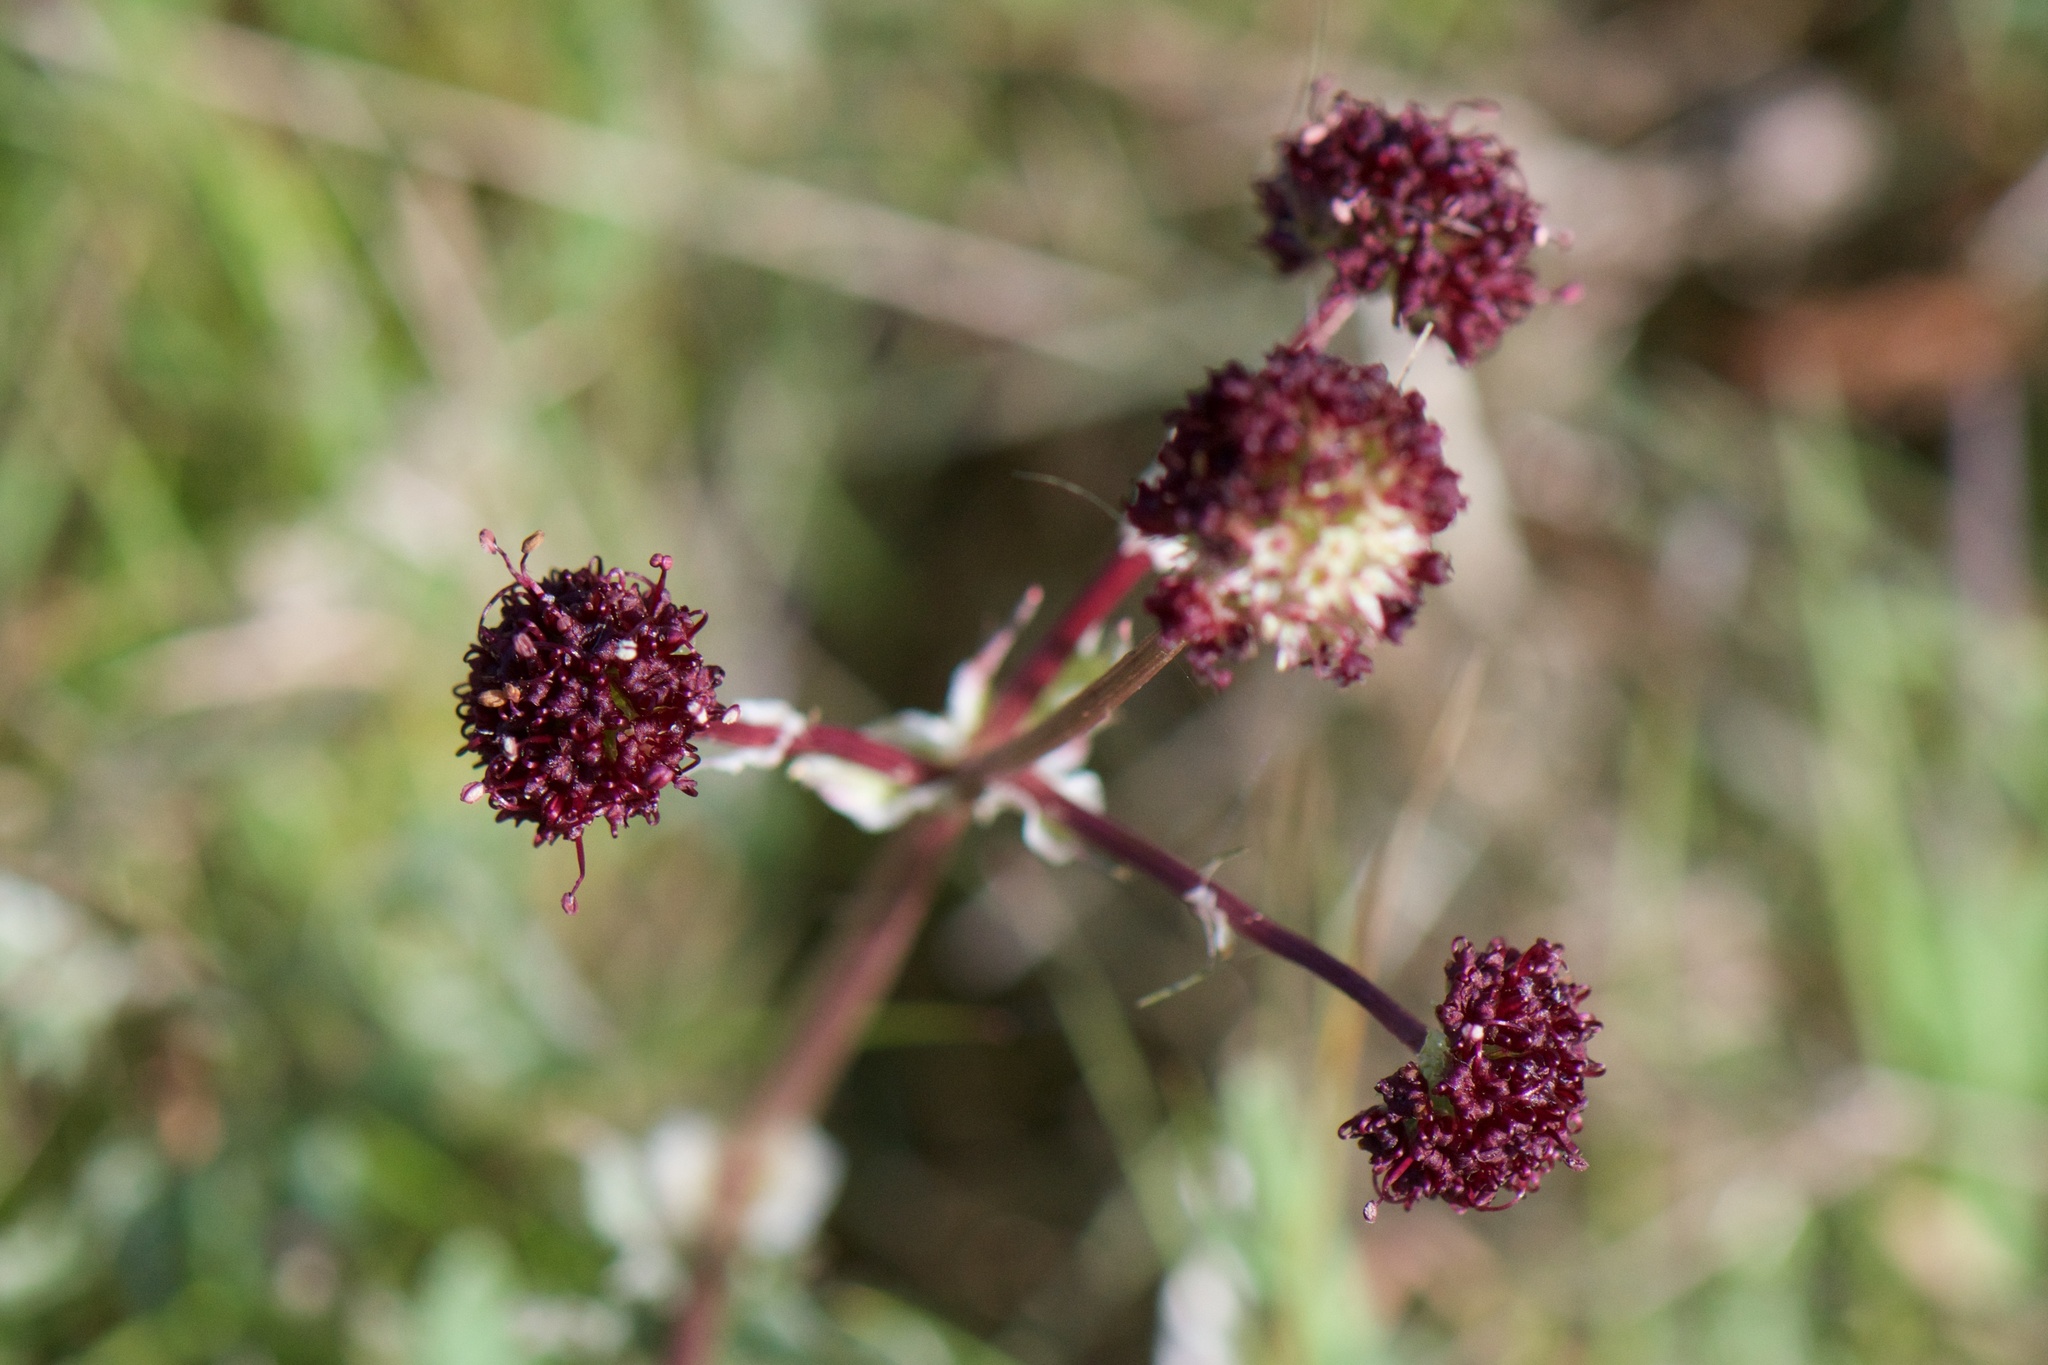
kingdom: Plantae
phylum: Tracheophyta
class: Magnoliopsida
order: Apiales
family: Apiaceae
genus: Sanicula
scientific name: Sanicula bipinnatifida
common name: Shoe-buttons
